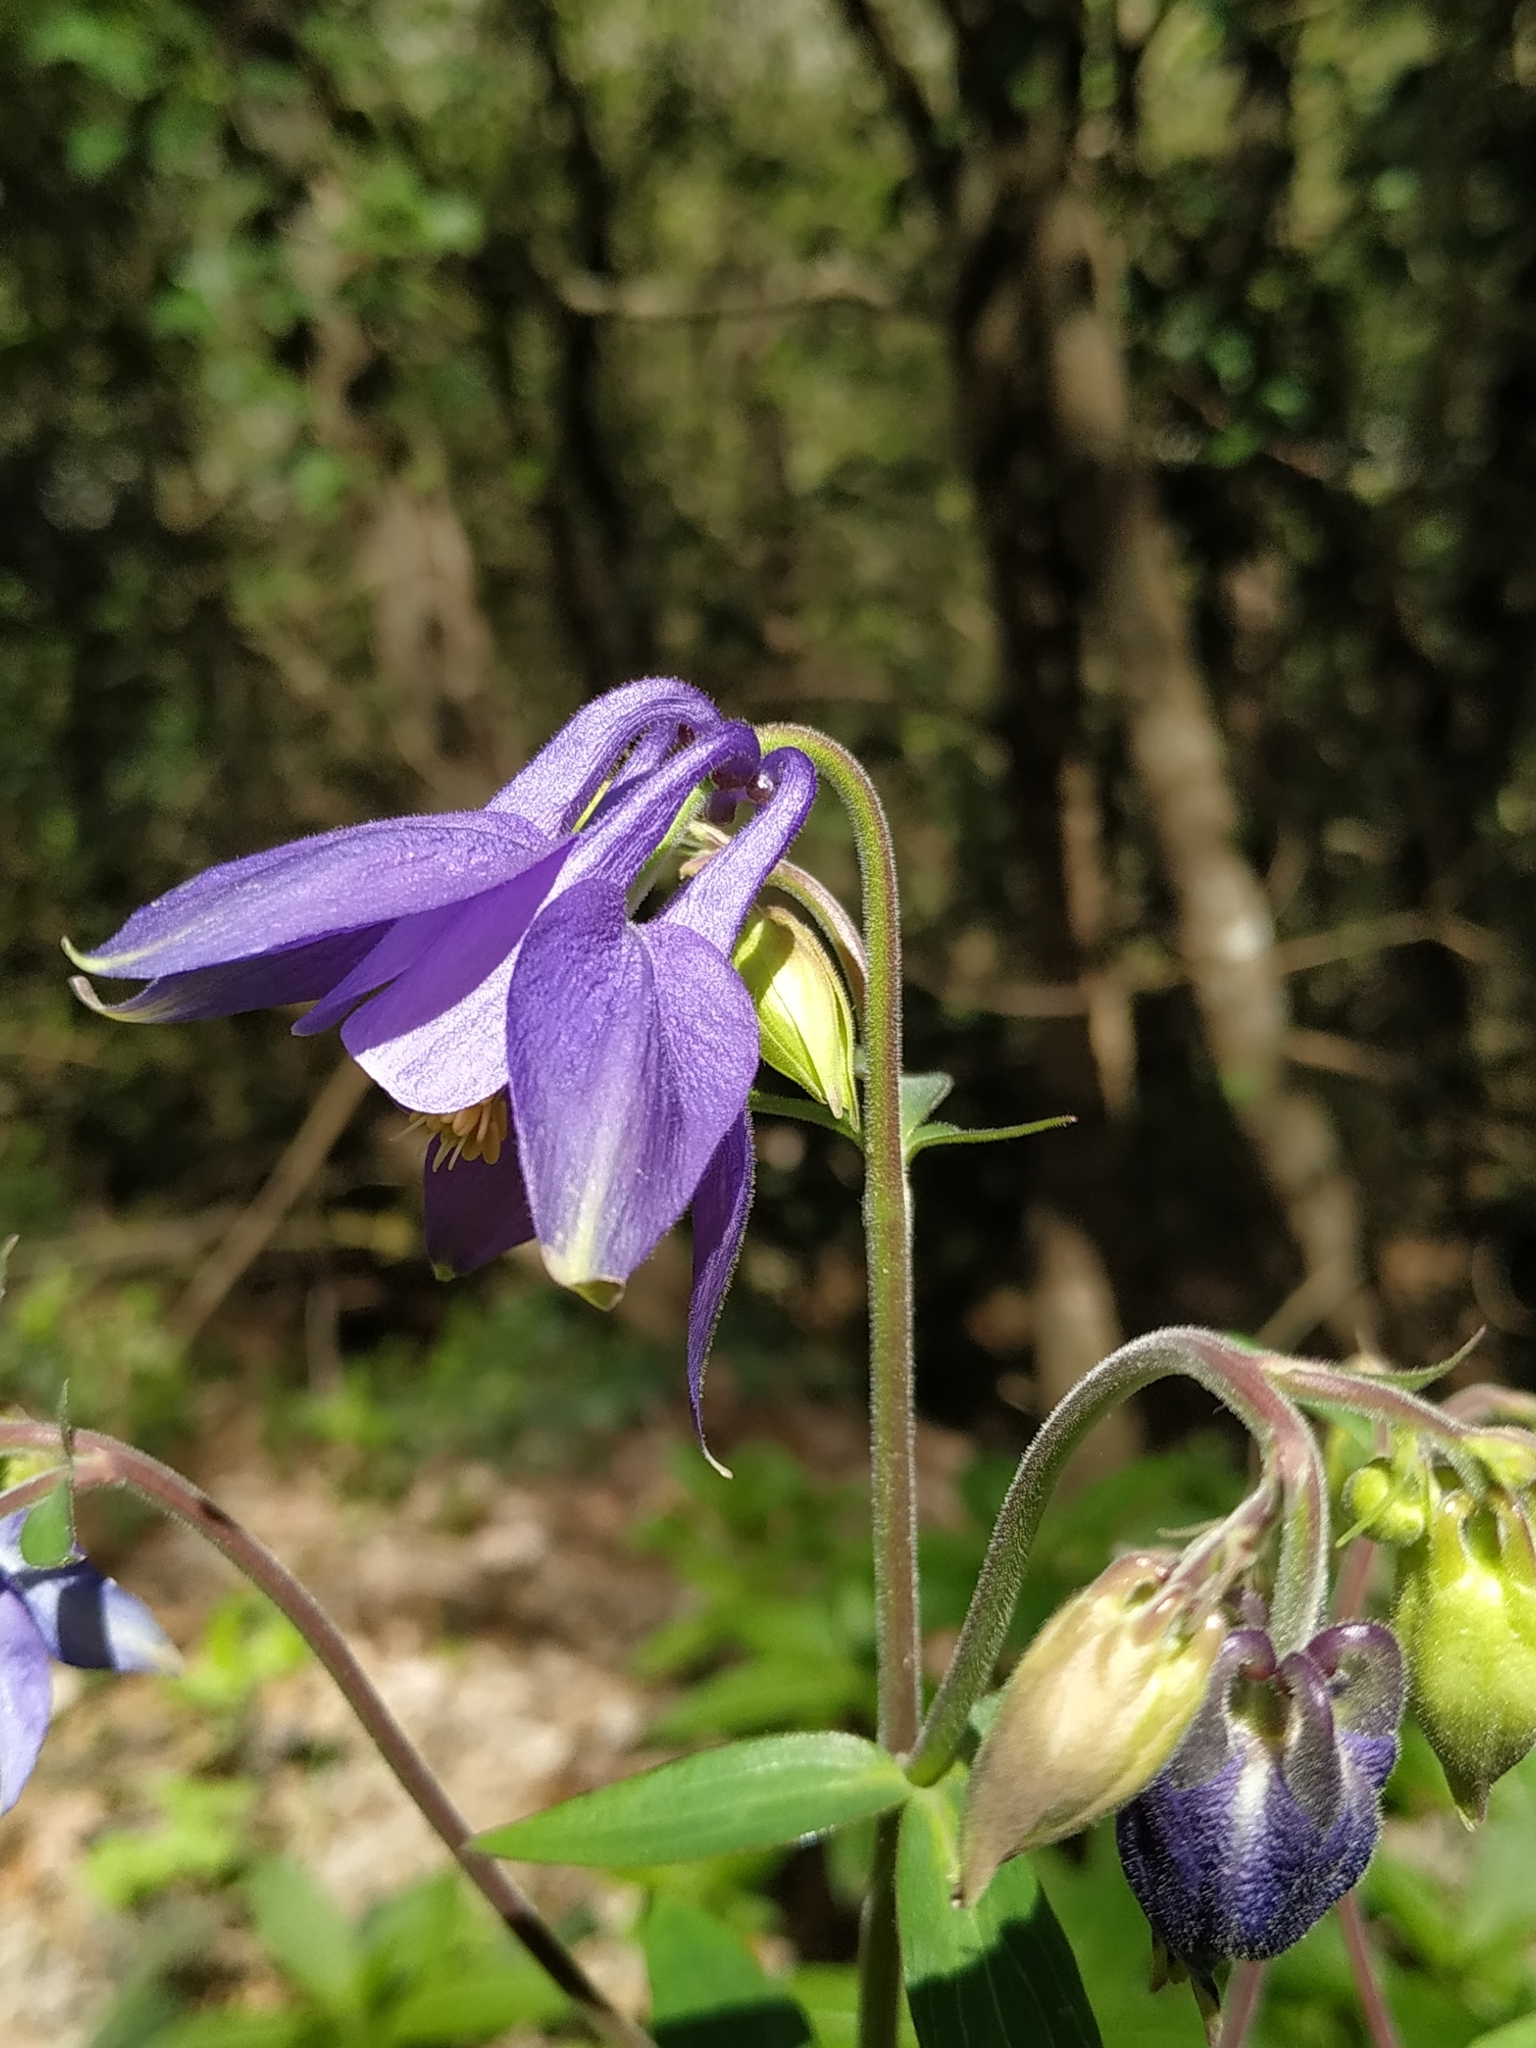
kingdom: Plantae
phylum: Tracheophyta
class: Magnoliopsida
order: Ranunculales
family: Ranunculaceae
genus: Aquilegia
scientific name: Aquilegia vulgaris
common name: Columbine
